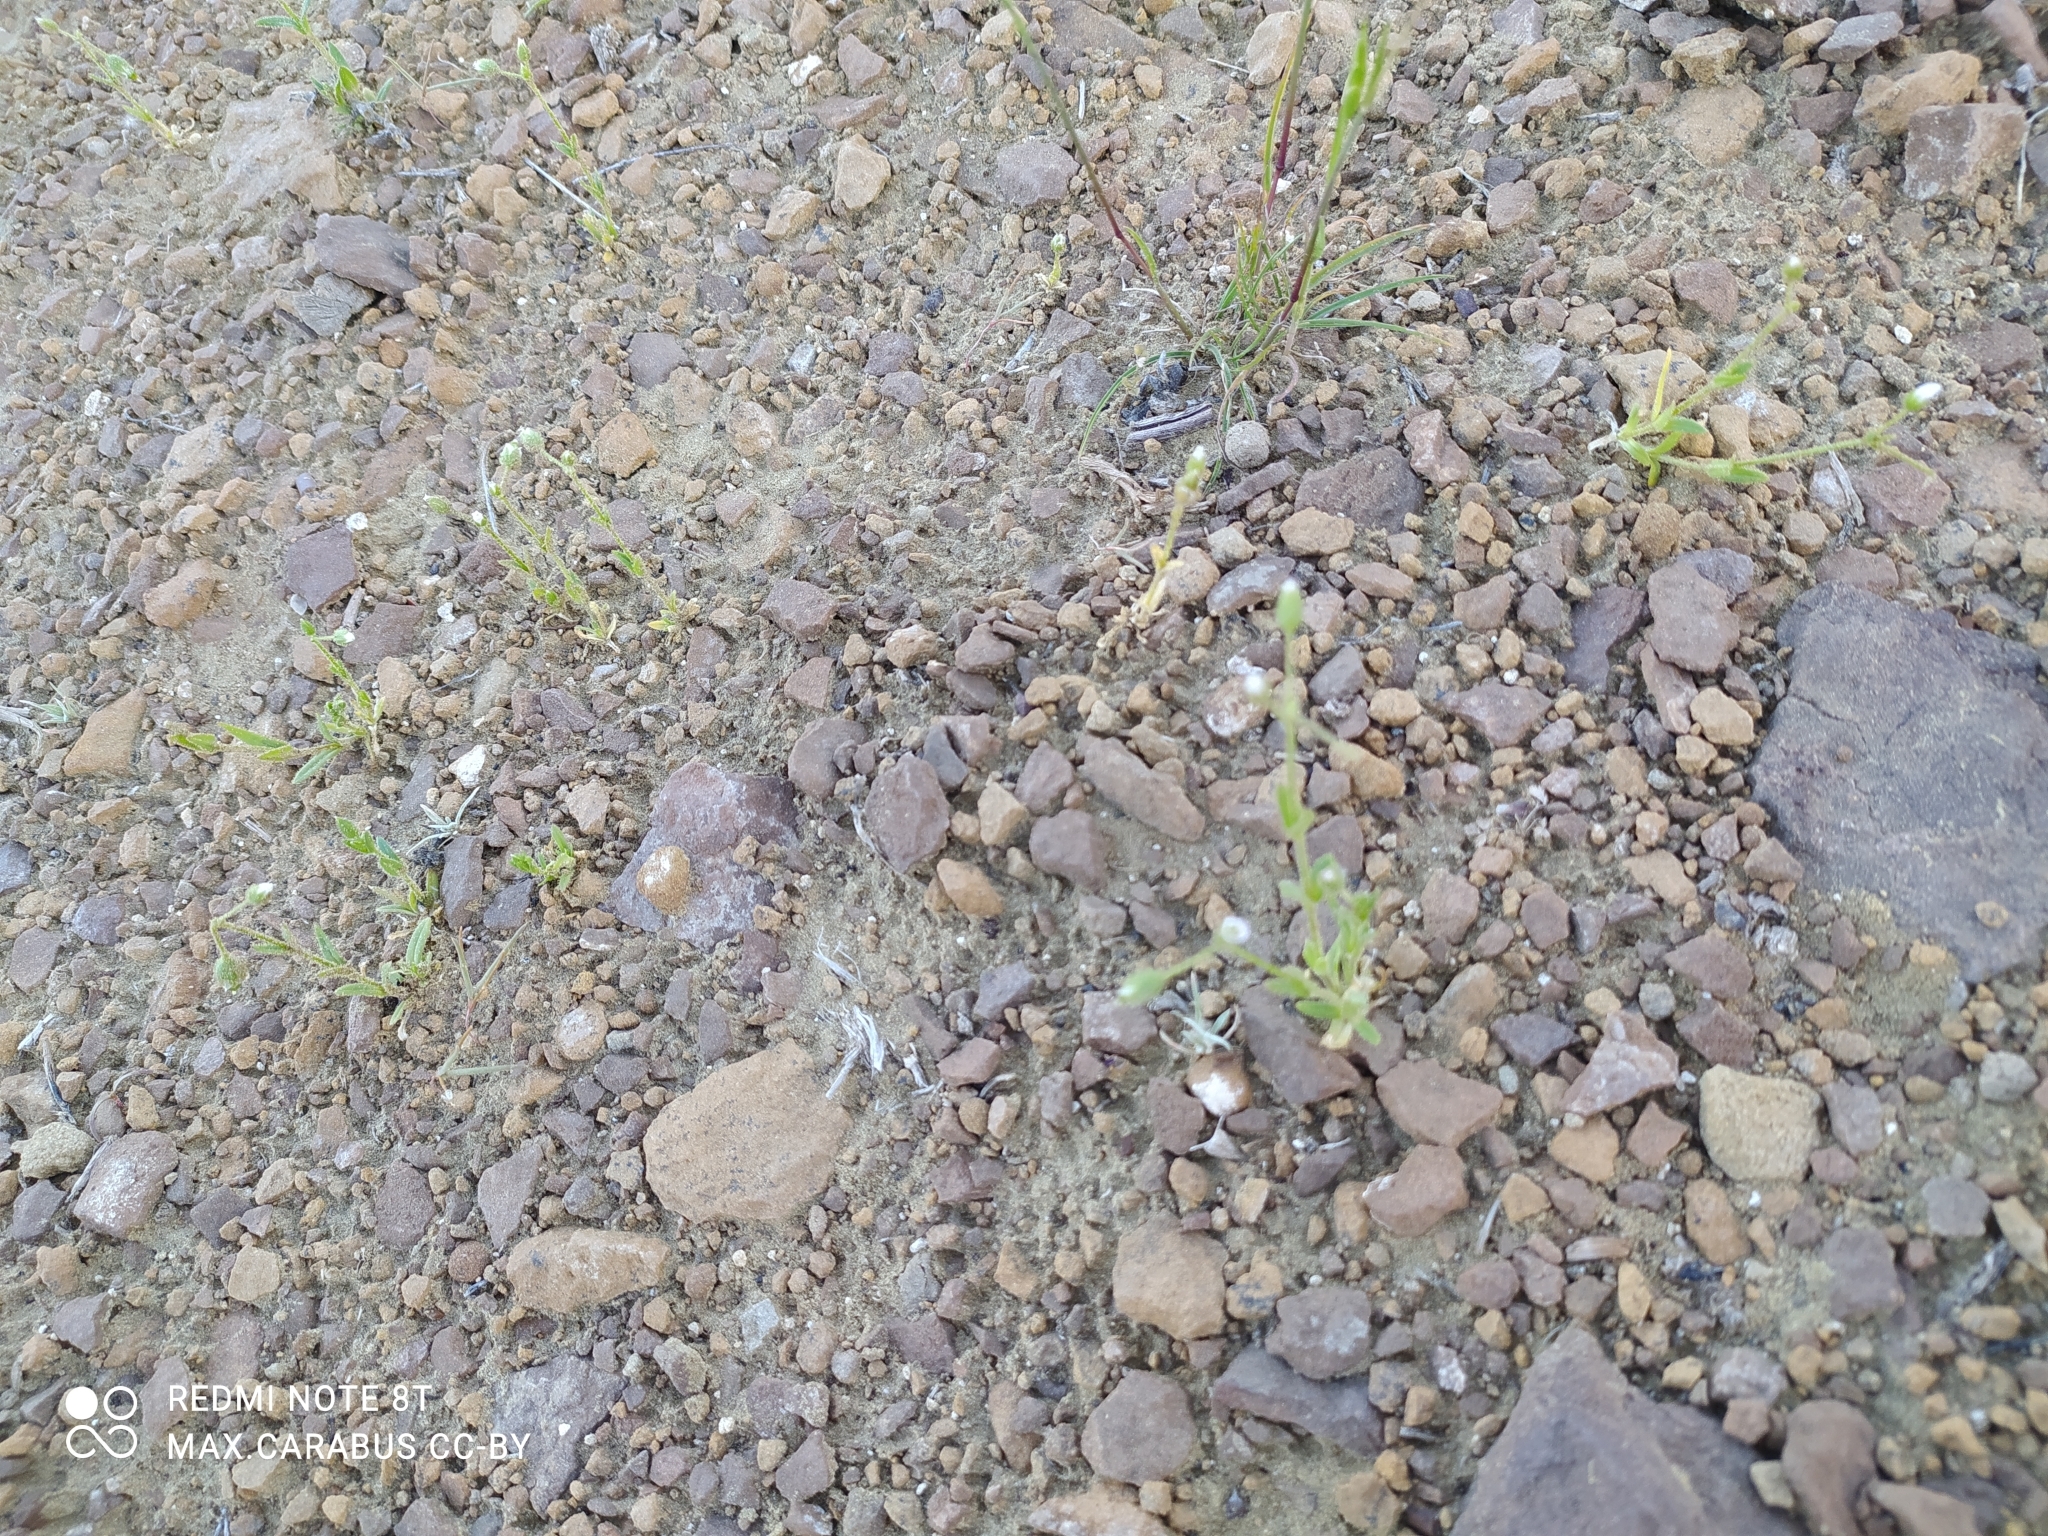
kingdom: Plantae
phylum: Tracheophyta
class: Magnoliopsida
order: Caryophyllales
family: Caryophyllaceae
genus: Holosteum
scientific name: Holosteum glutinosum
